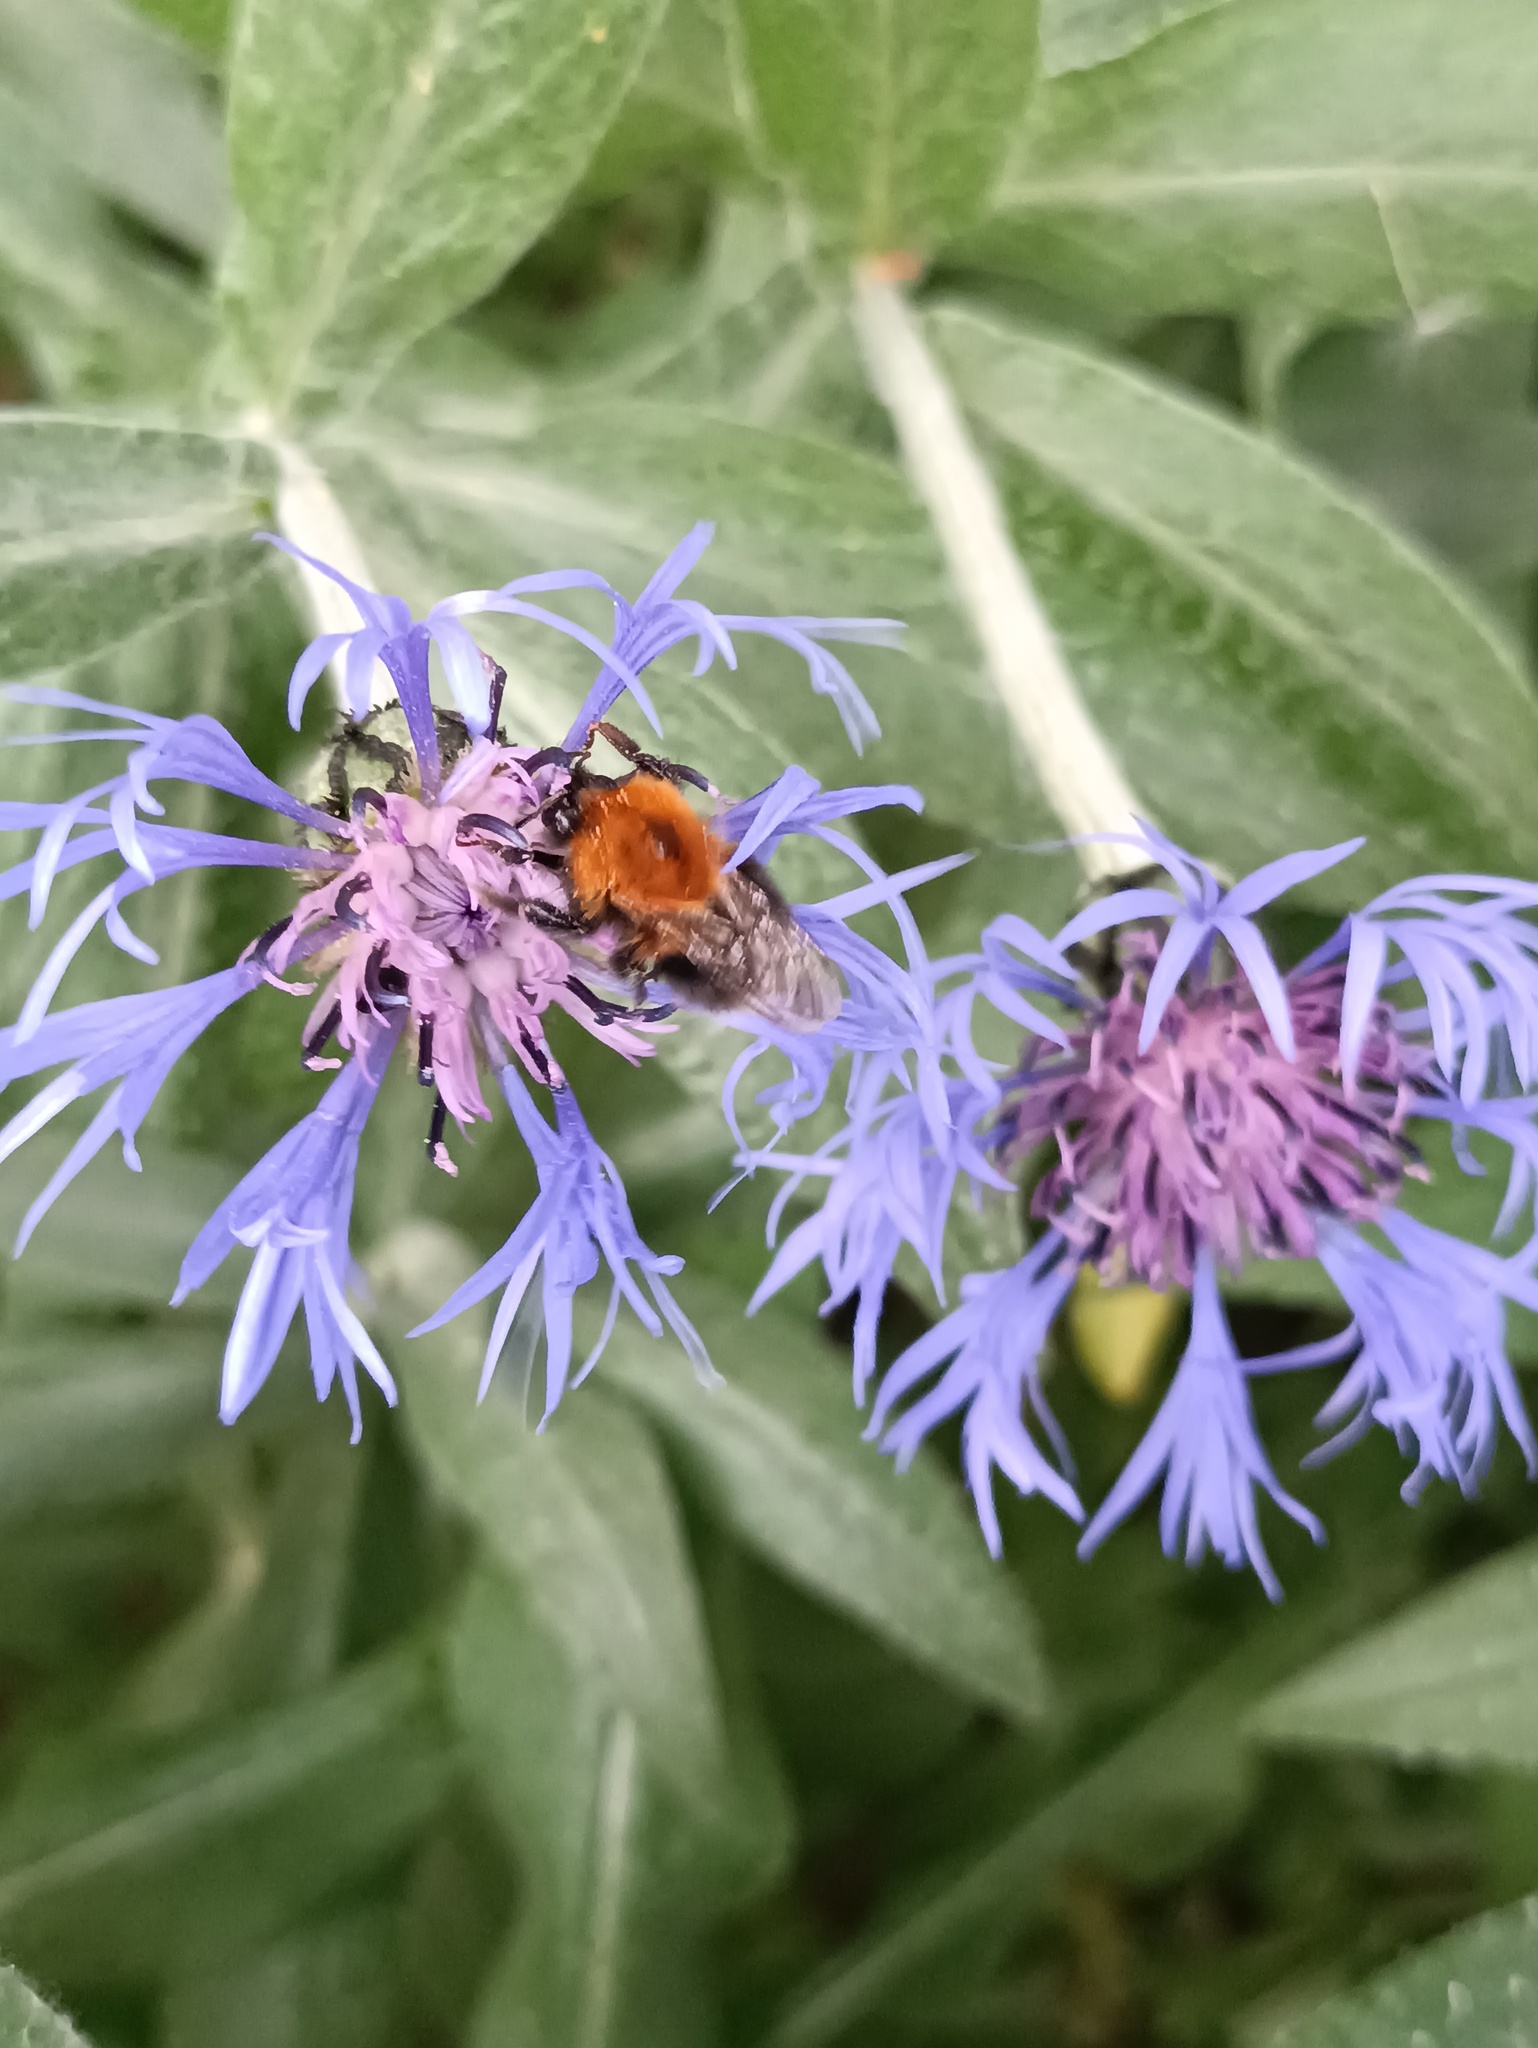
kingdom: Animalia
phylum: Arthropoda
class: Insecta
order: Hymenoptera
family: Apidae
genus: Bombus
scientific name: Bombus hypnorum
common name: New garden bumblebee
